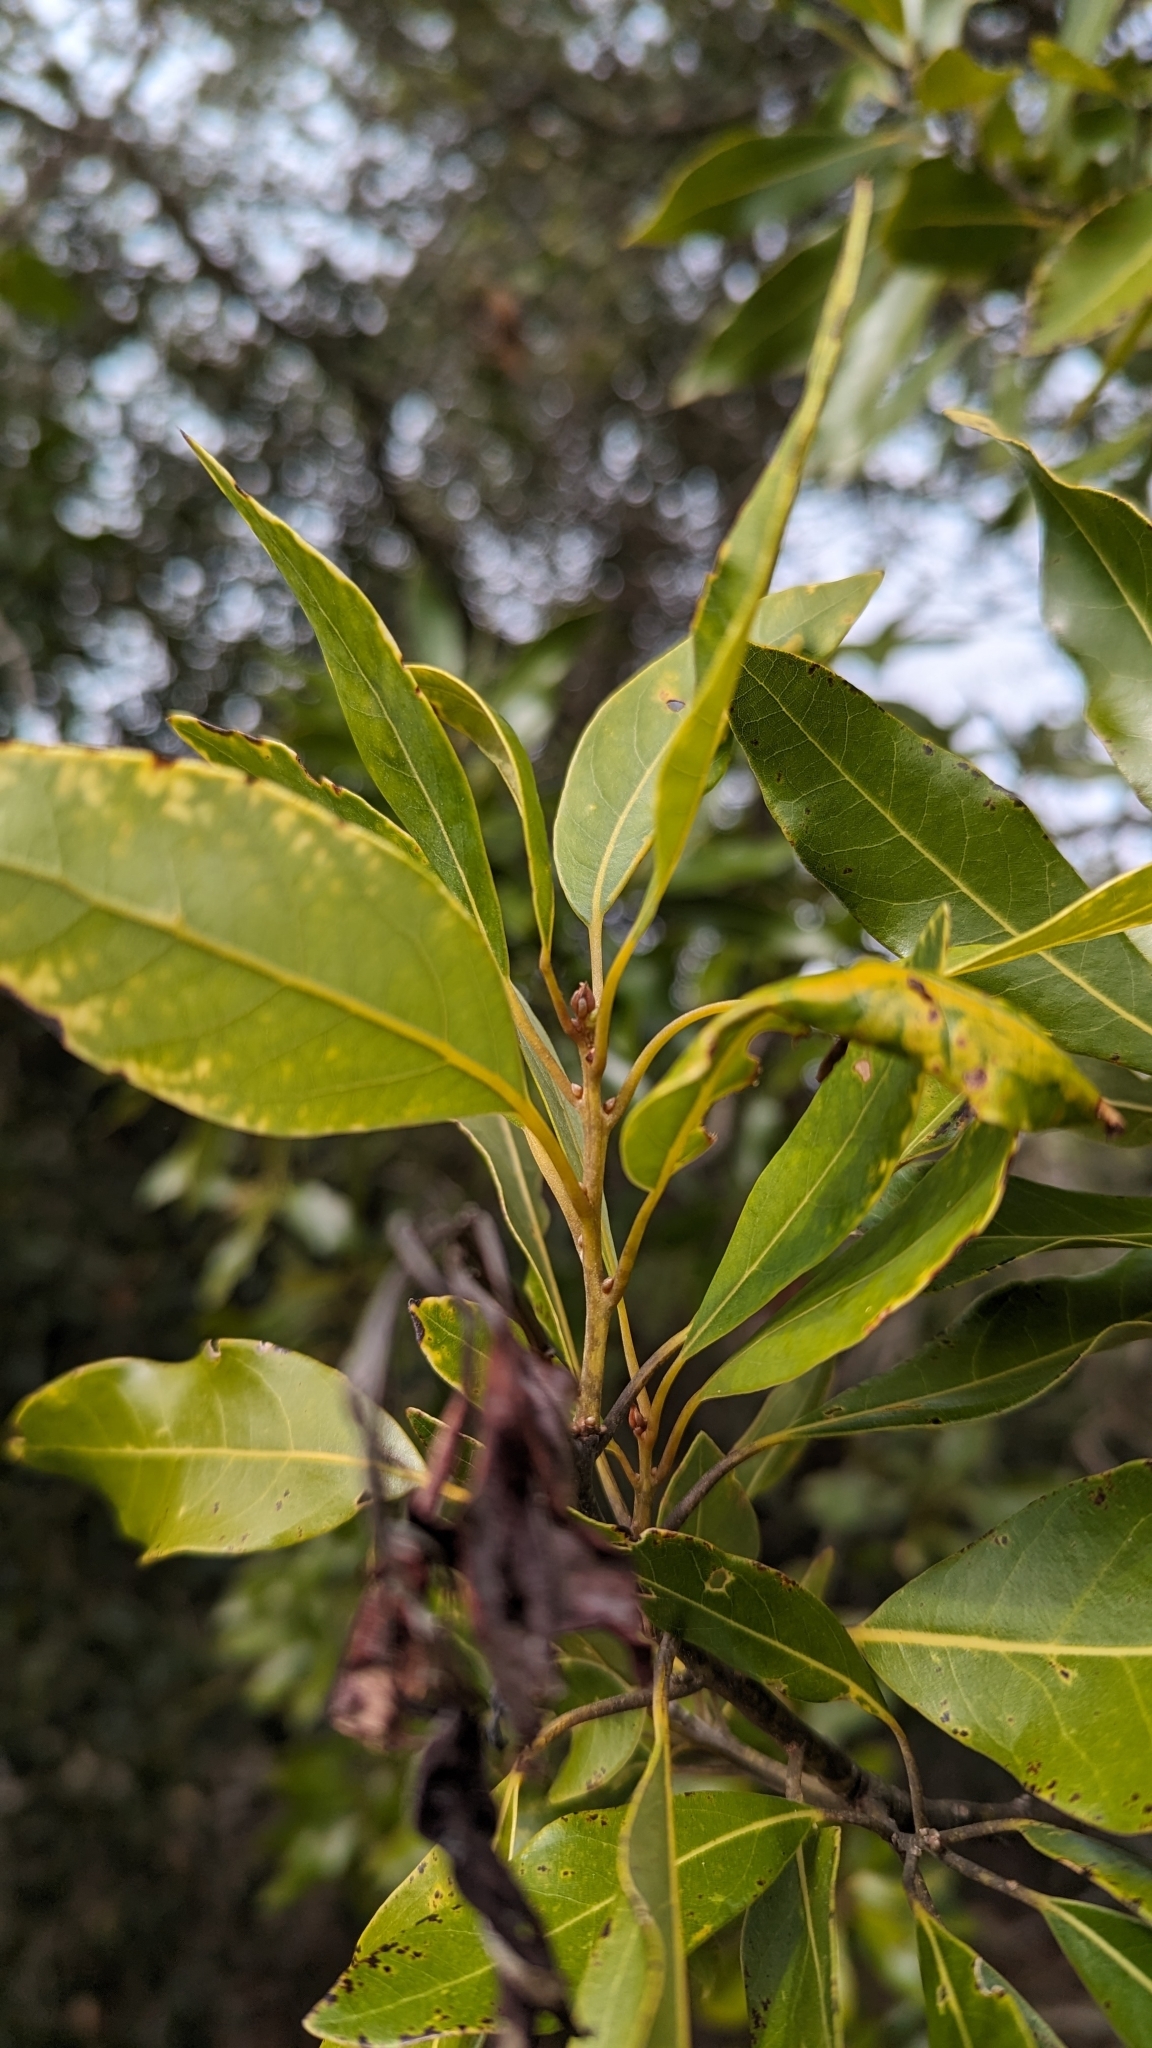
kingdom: Plantae
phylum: Tracheophyta
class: Magnoliopsida
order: Laurales
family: Lauraceae
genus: Persea
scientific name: Persea borbonia
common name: Redbay
